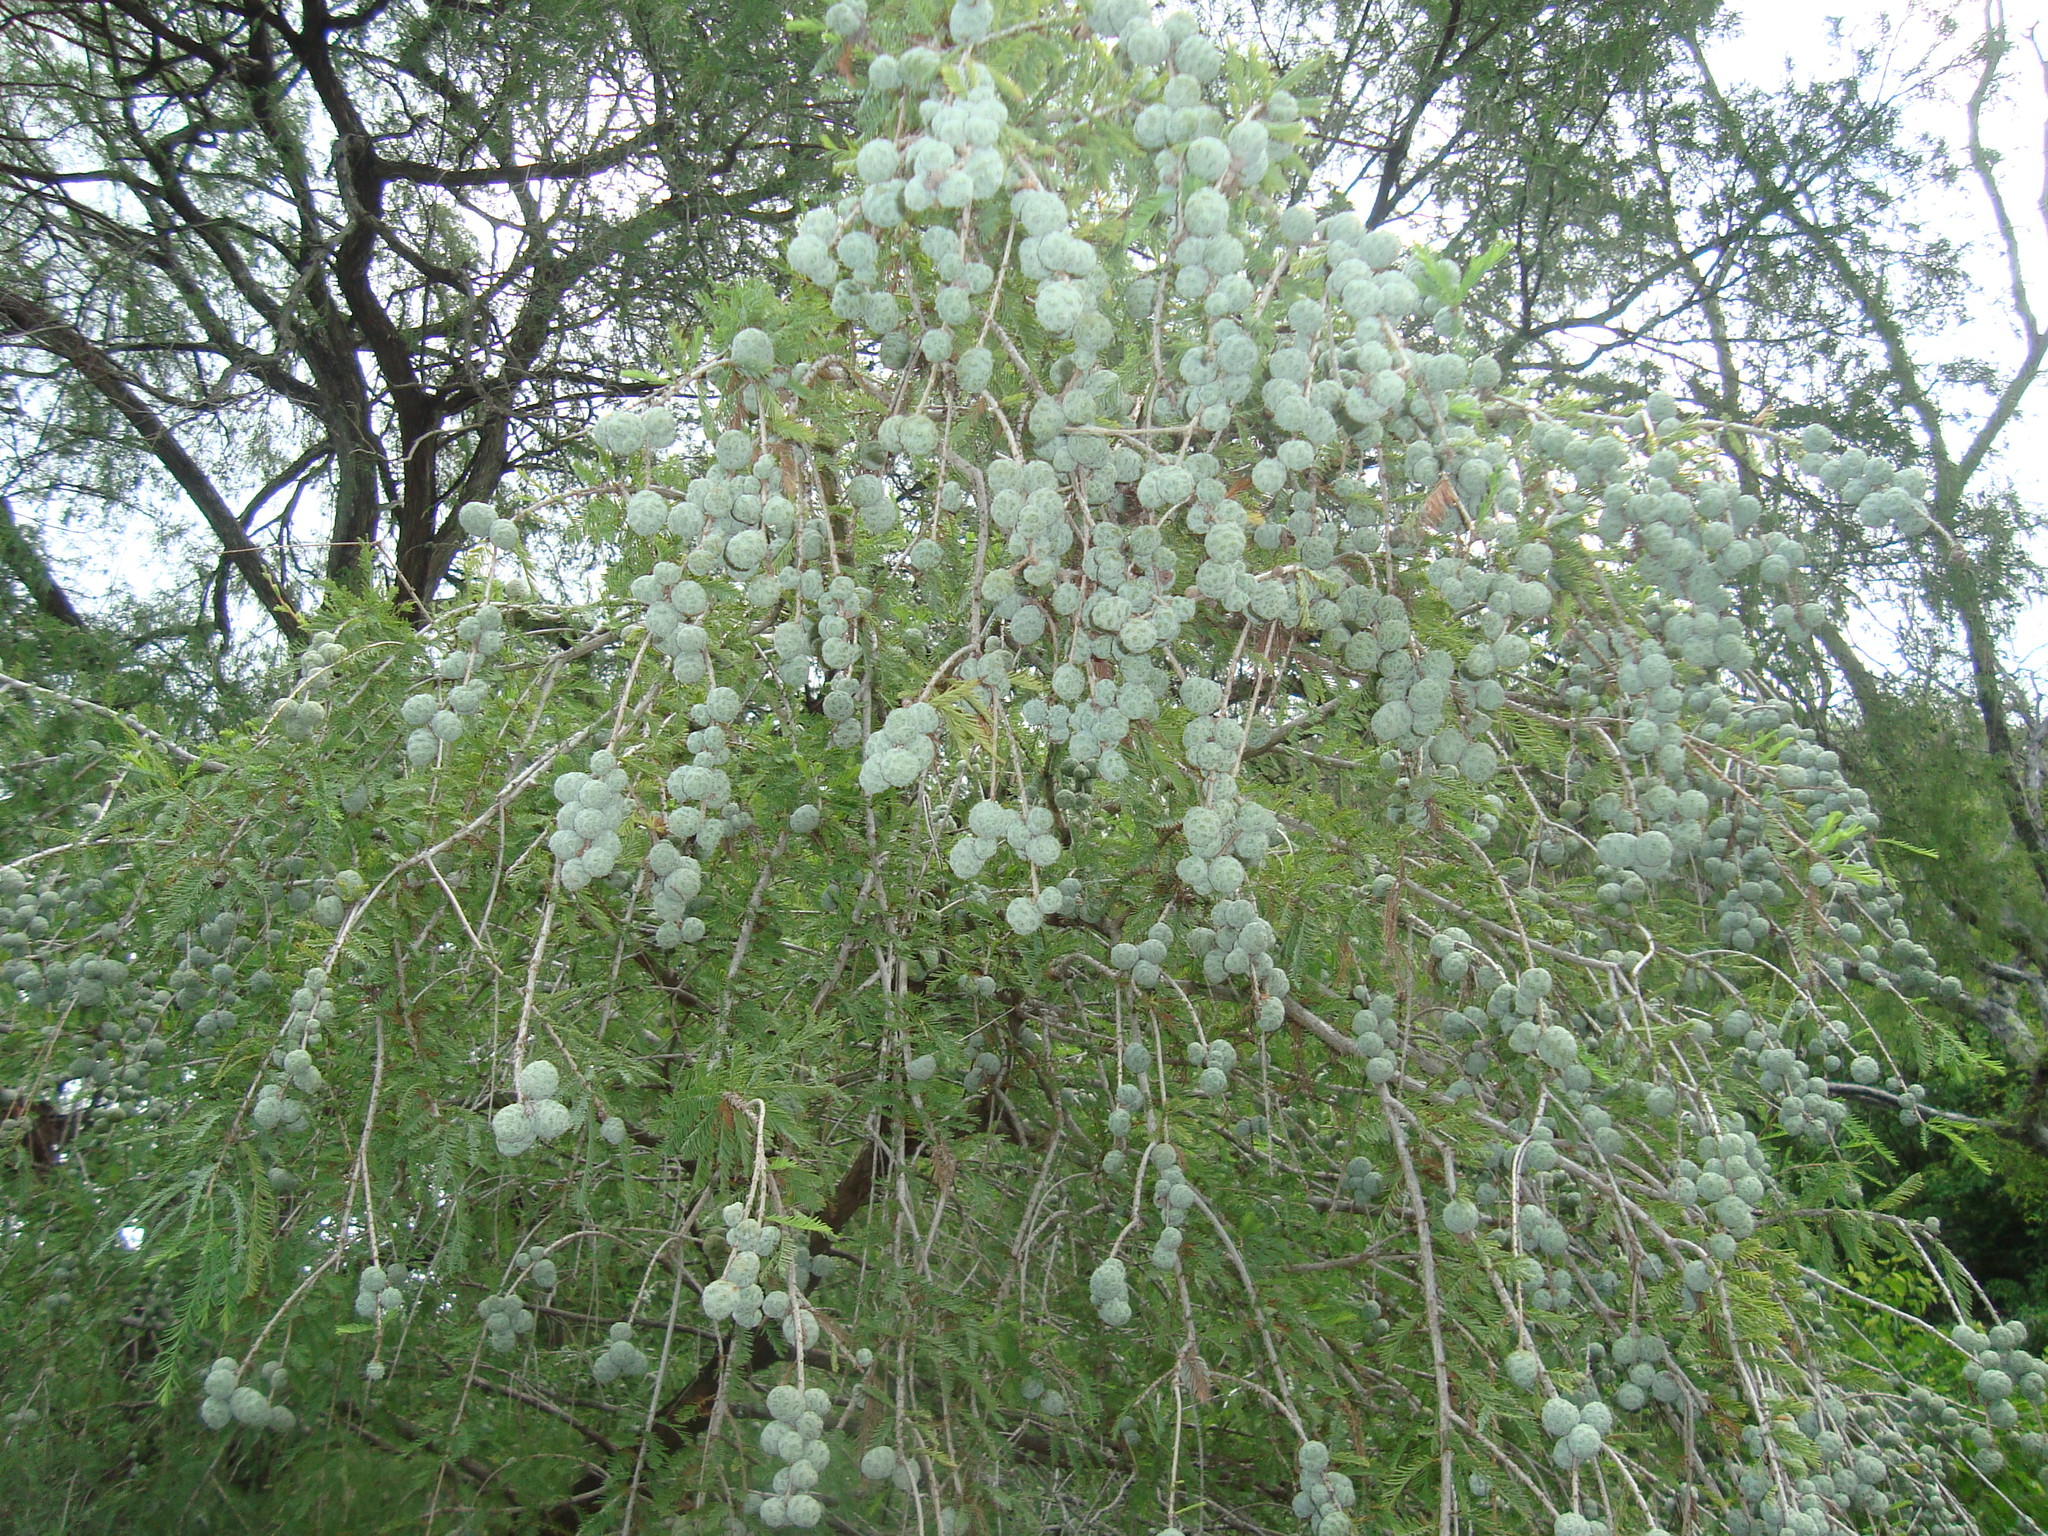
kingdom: Plantae
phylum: Tracheophyta
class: Pinopsida
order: Pinales
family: Cupressaceae
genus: Taxodium
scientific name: Taxodium mucronatum
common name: Montezume bald cypress
